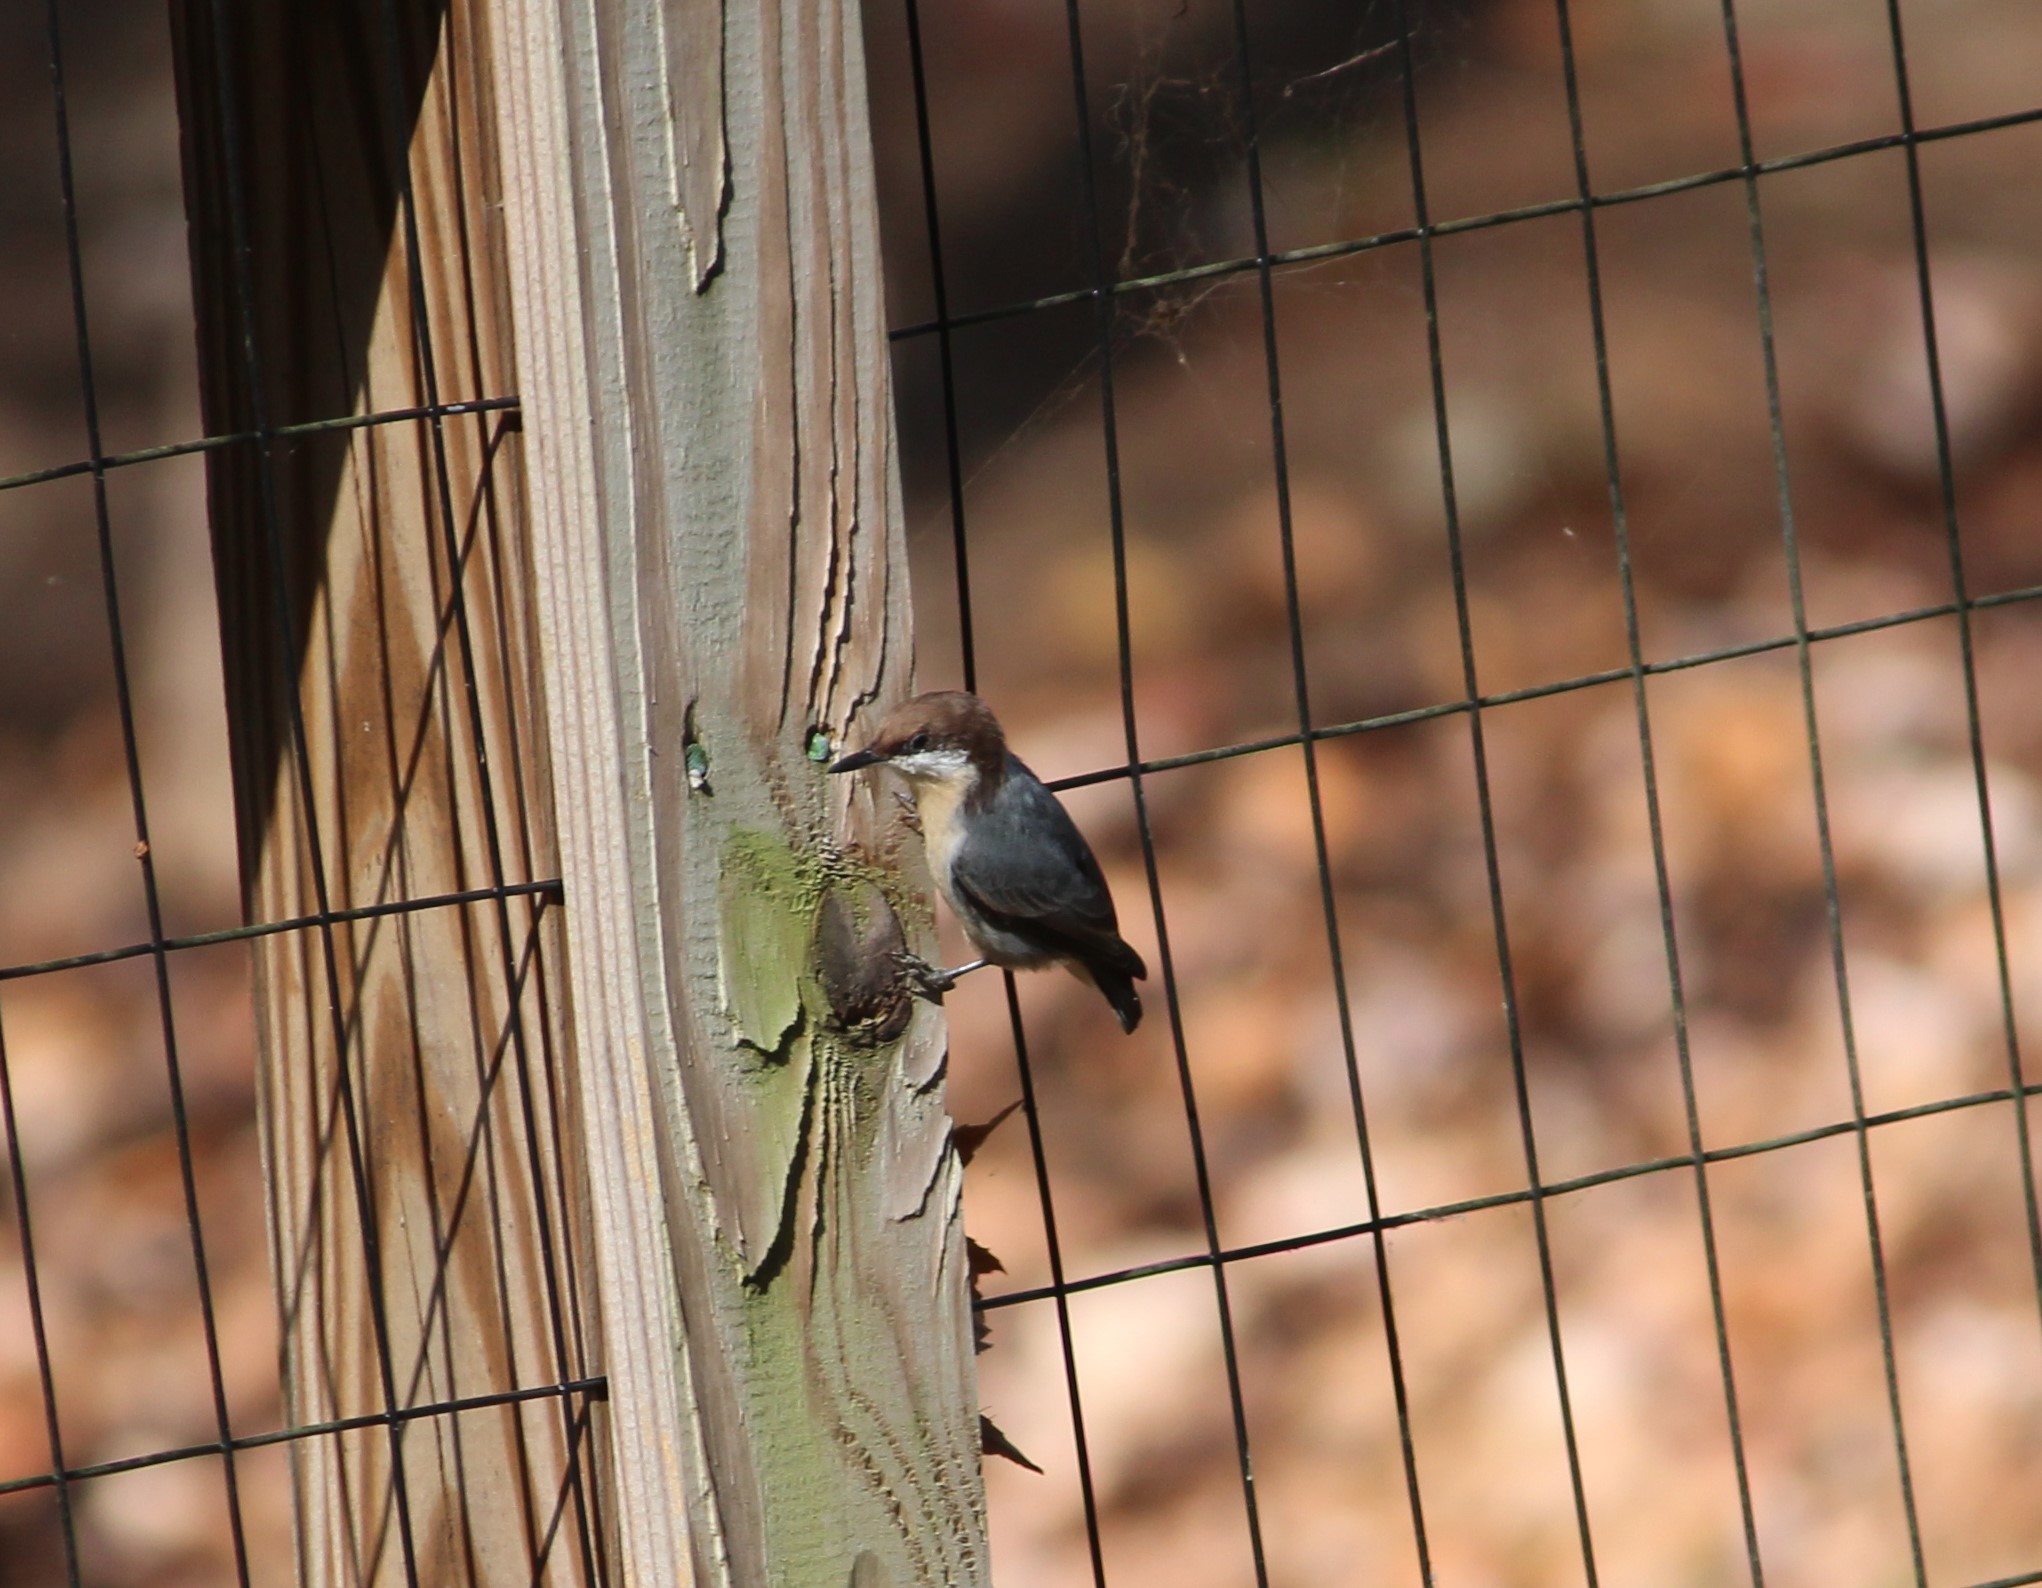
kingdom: Animalia
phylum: Chordata
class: Aves
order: Passeriformes
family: Sittidae
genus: Sitta
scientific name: Sitta pusilla
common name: Brown-headed nuthatch
